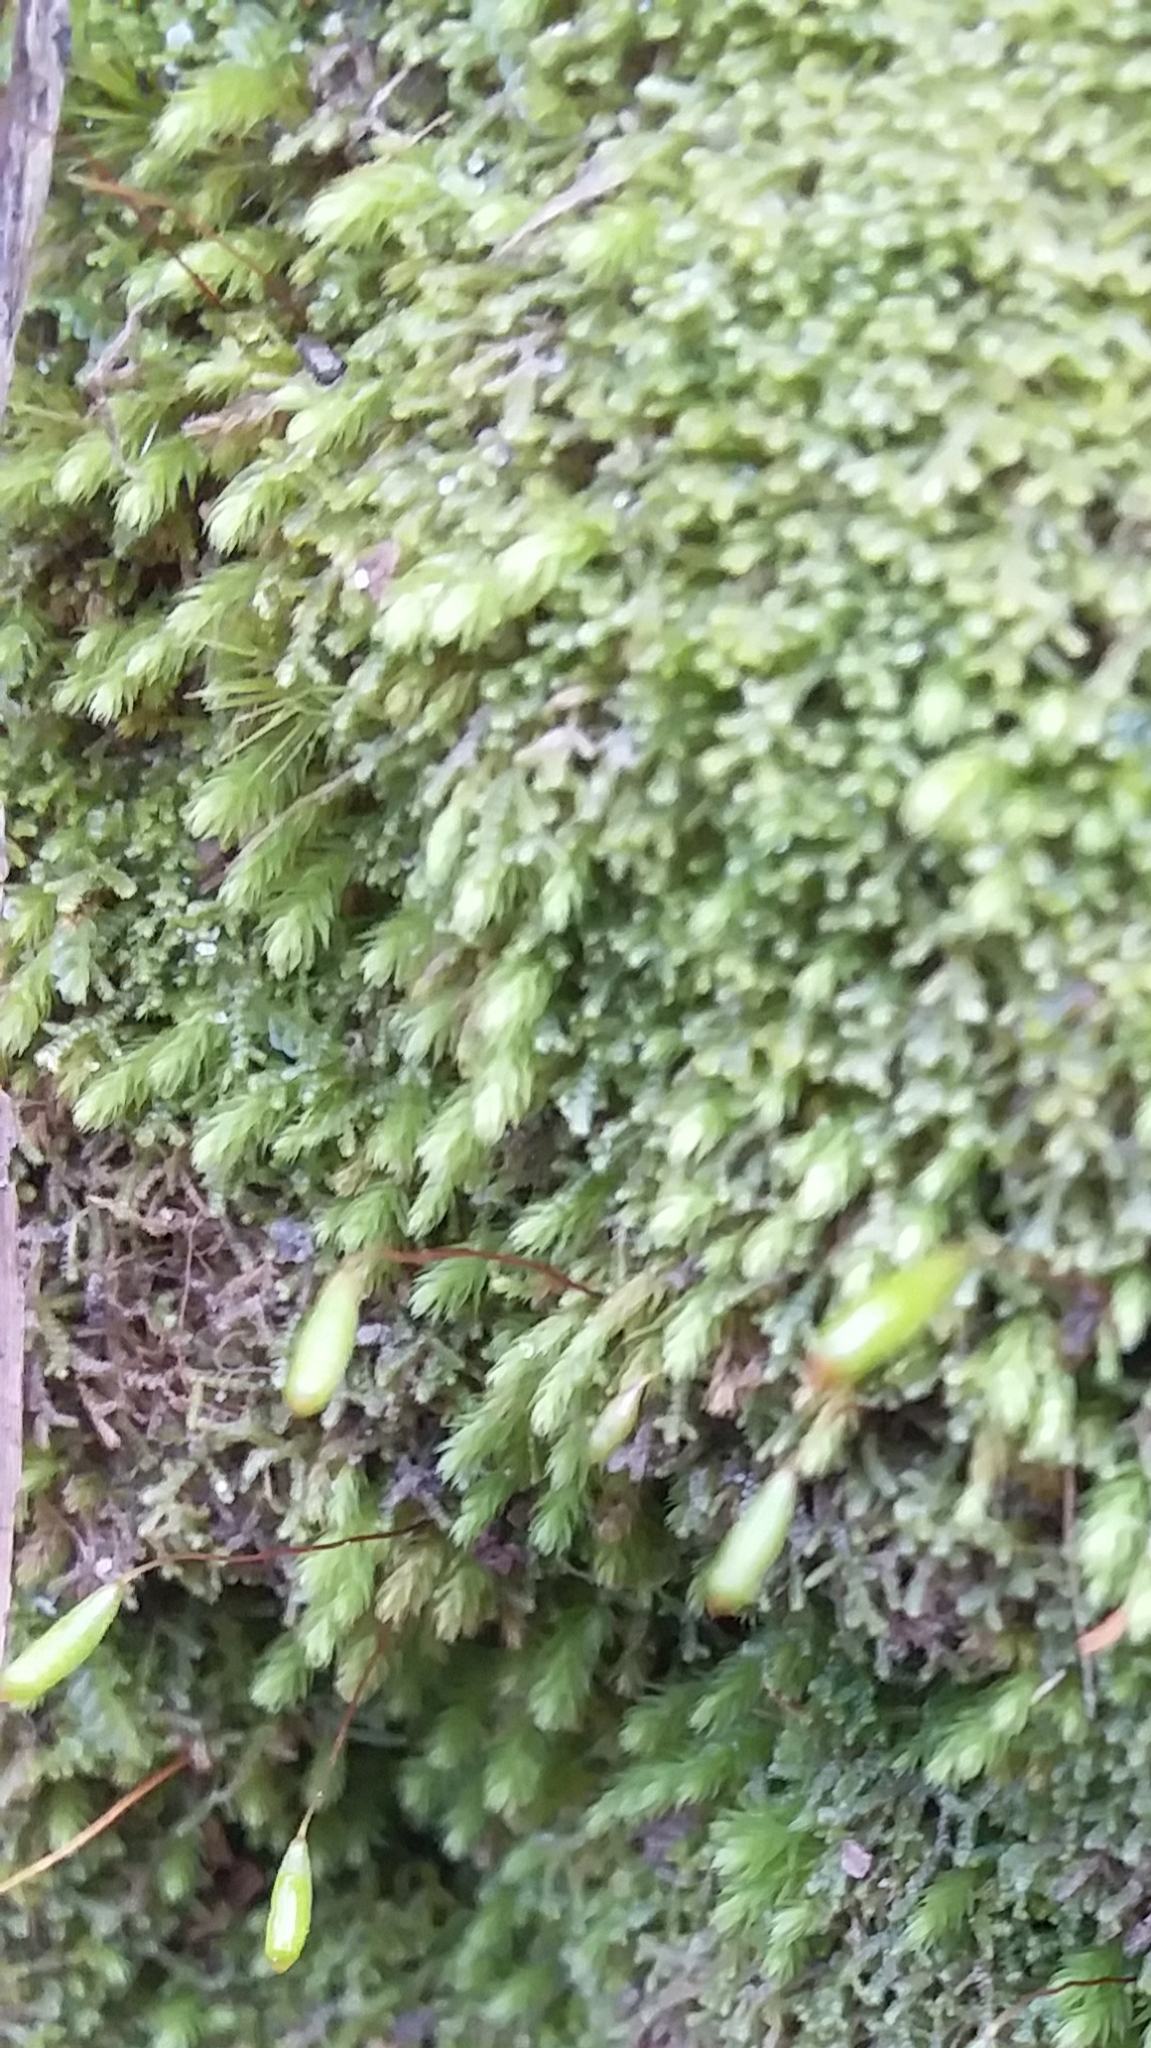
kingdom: Plantae
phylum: Bryophyta
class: Bryopsida
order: Bryales
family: Mniaceae
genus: Schizymenium
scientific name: Schizymenium bryoides
